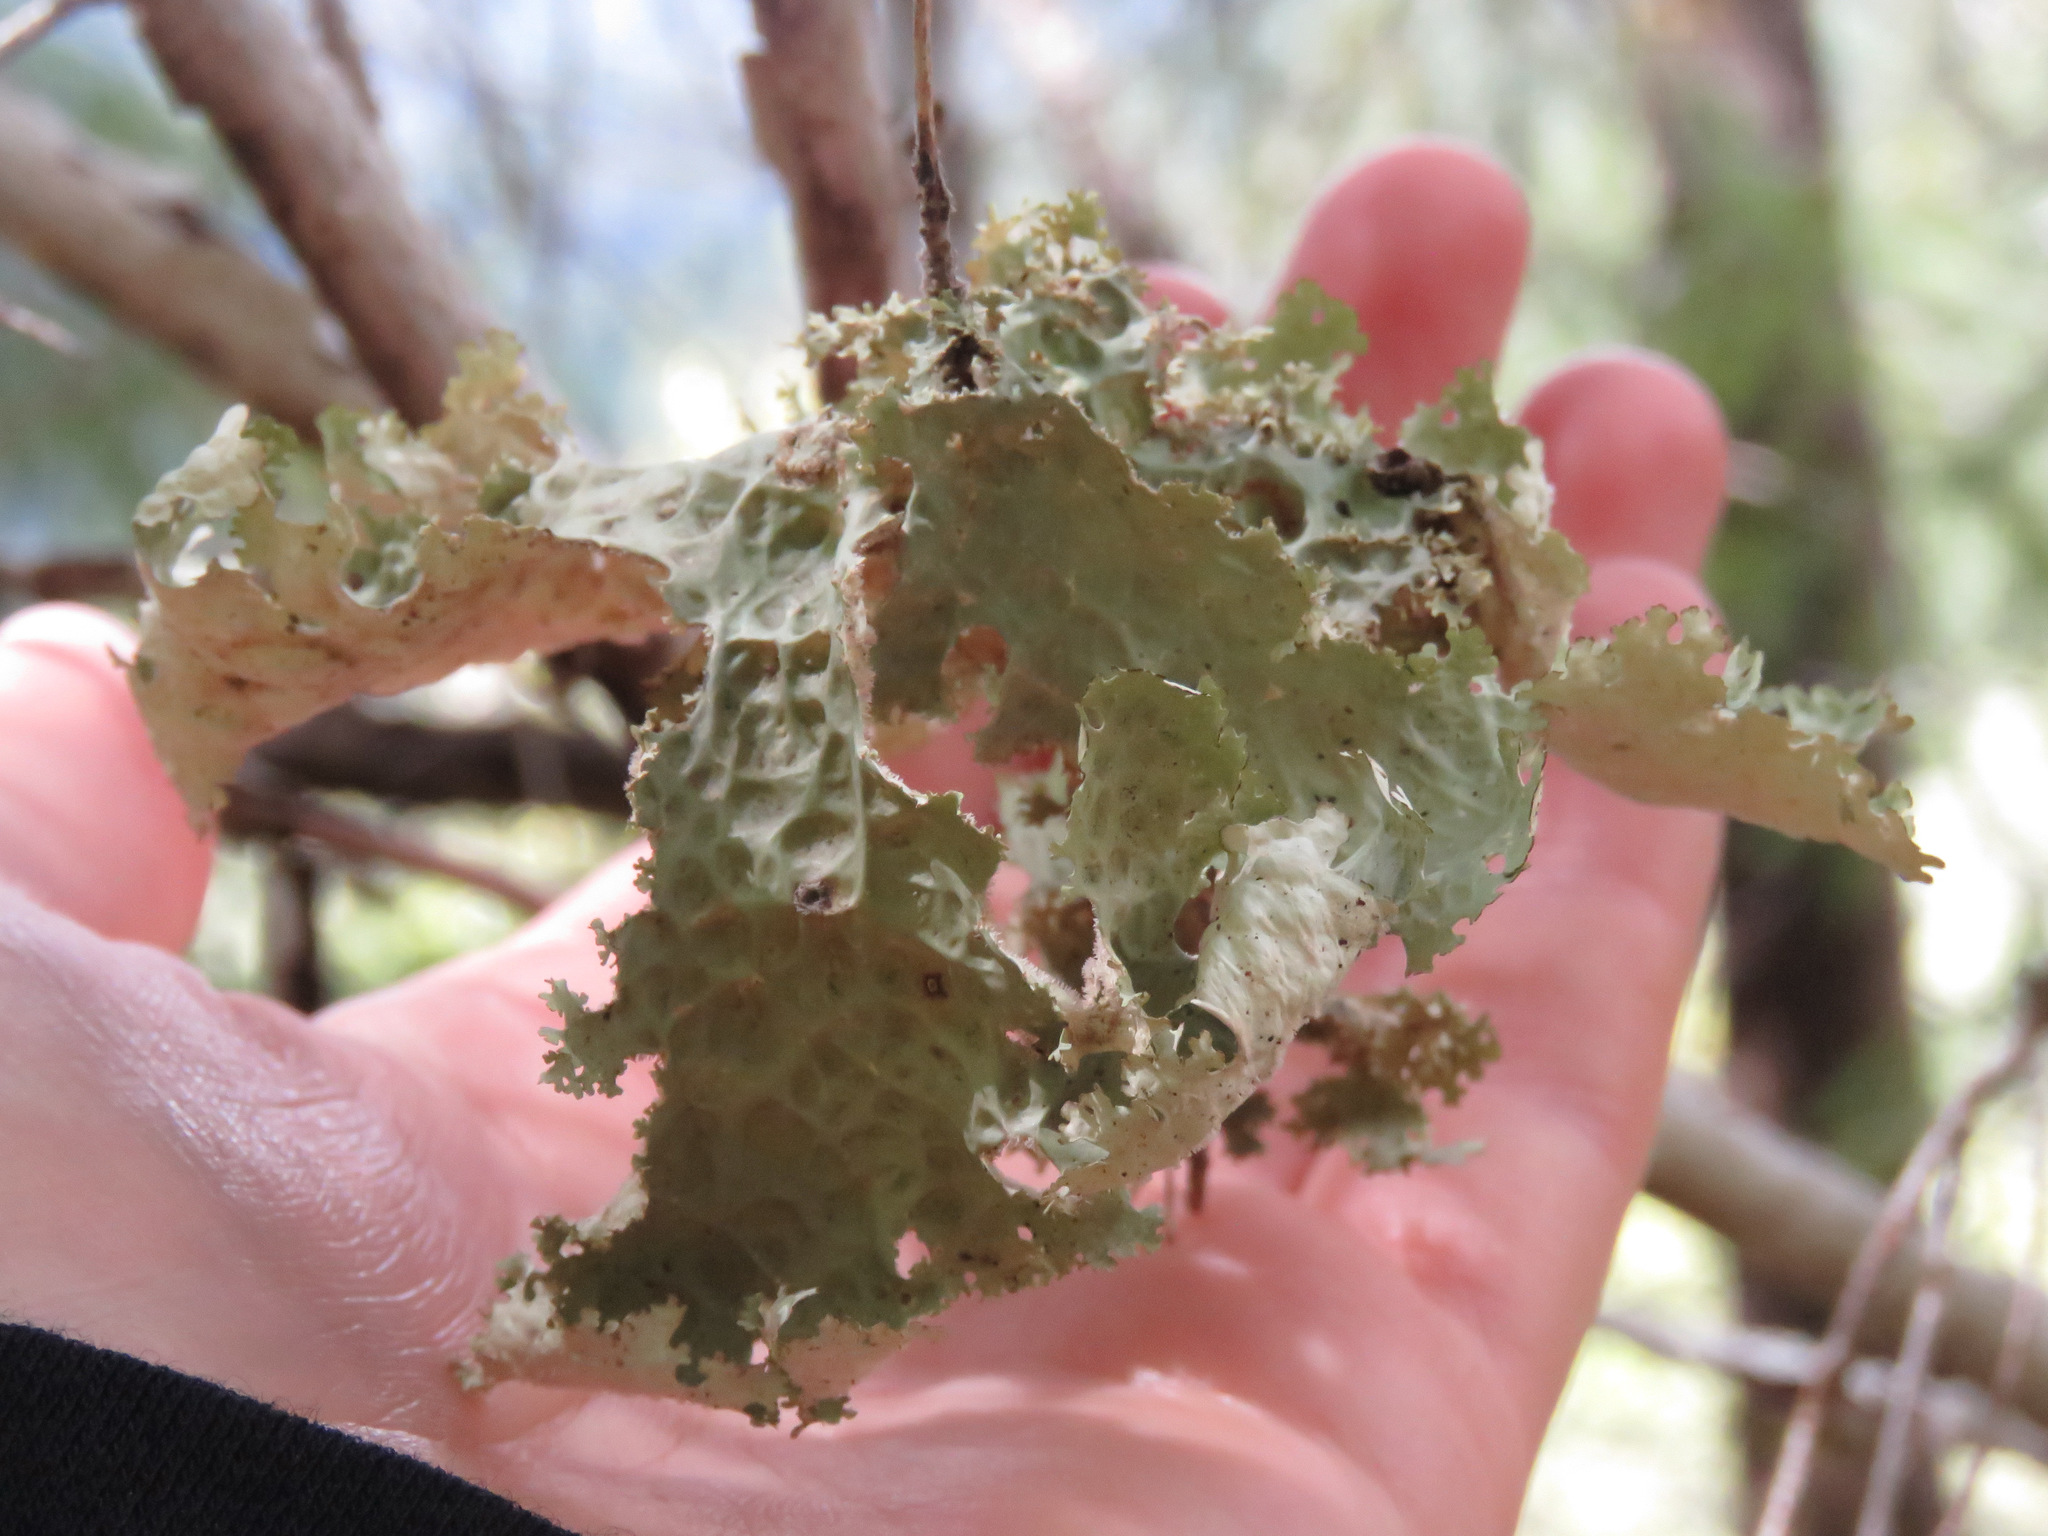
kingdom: Fungi
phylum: Ascomycota
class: Lecanoromycetes
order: Peltigerales
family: Lobariaceae
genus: Lobaria
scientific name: Lobaria oregana
